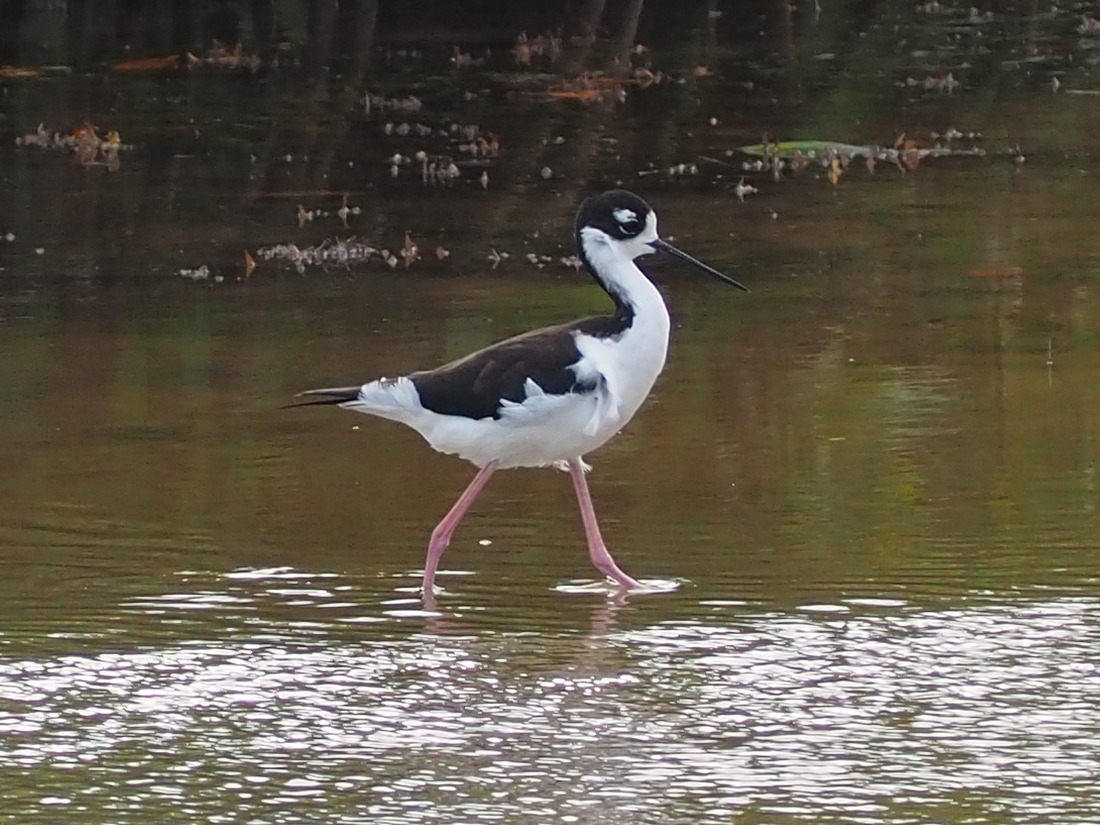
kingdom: Animalia
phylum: Chordata
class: Aves
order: Charadriiformes
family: Recurvirostridae
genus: Himantopus
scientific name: Himantopus mexicanus
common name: Black-necked stilt
